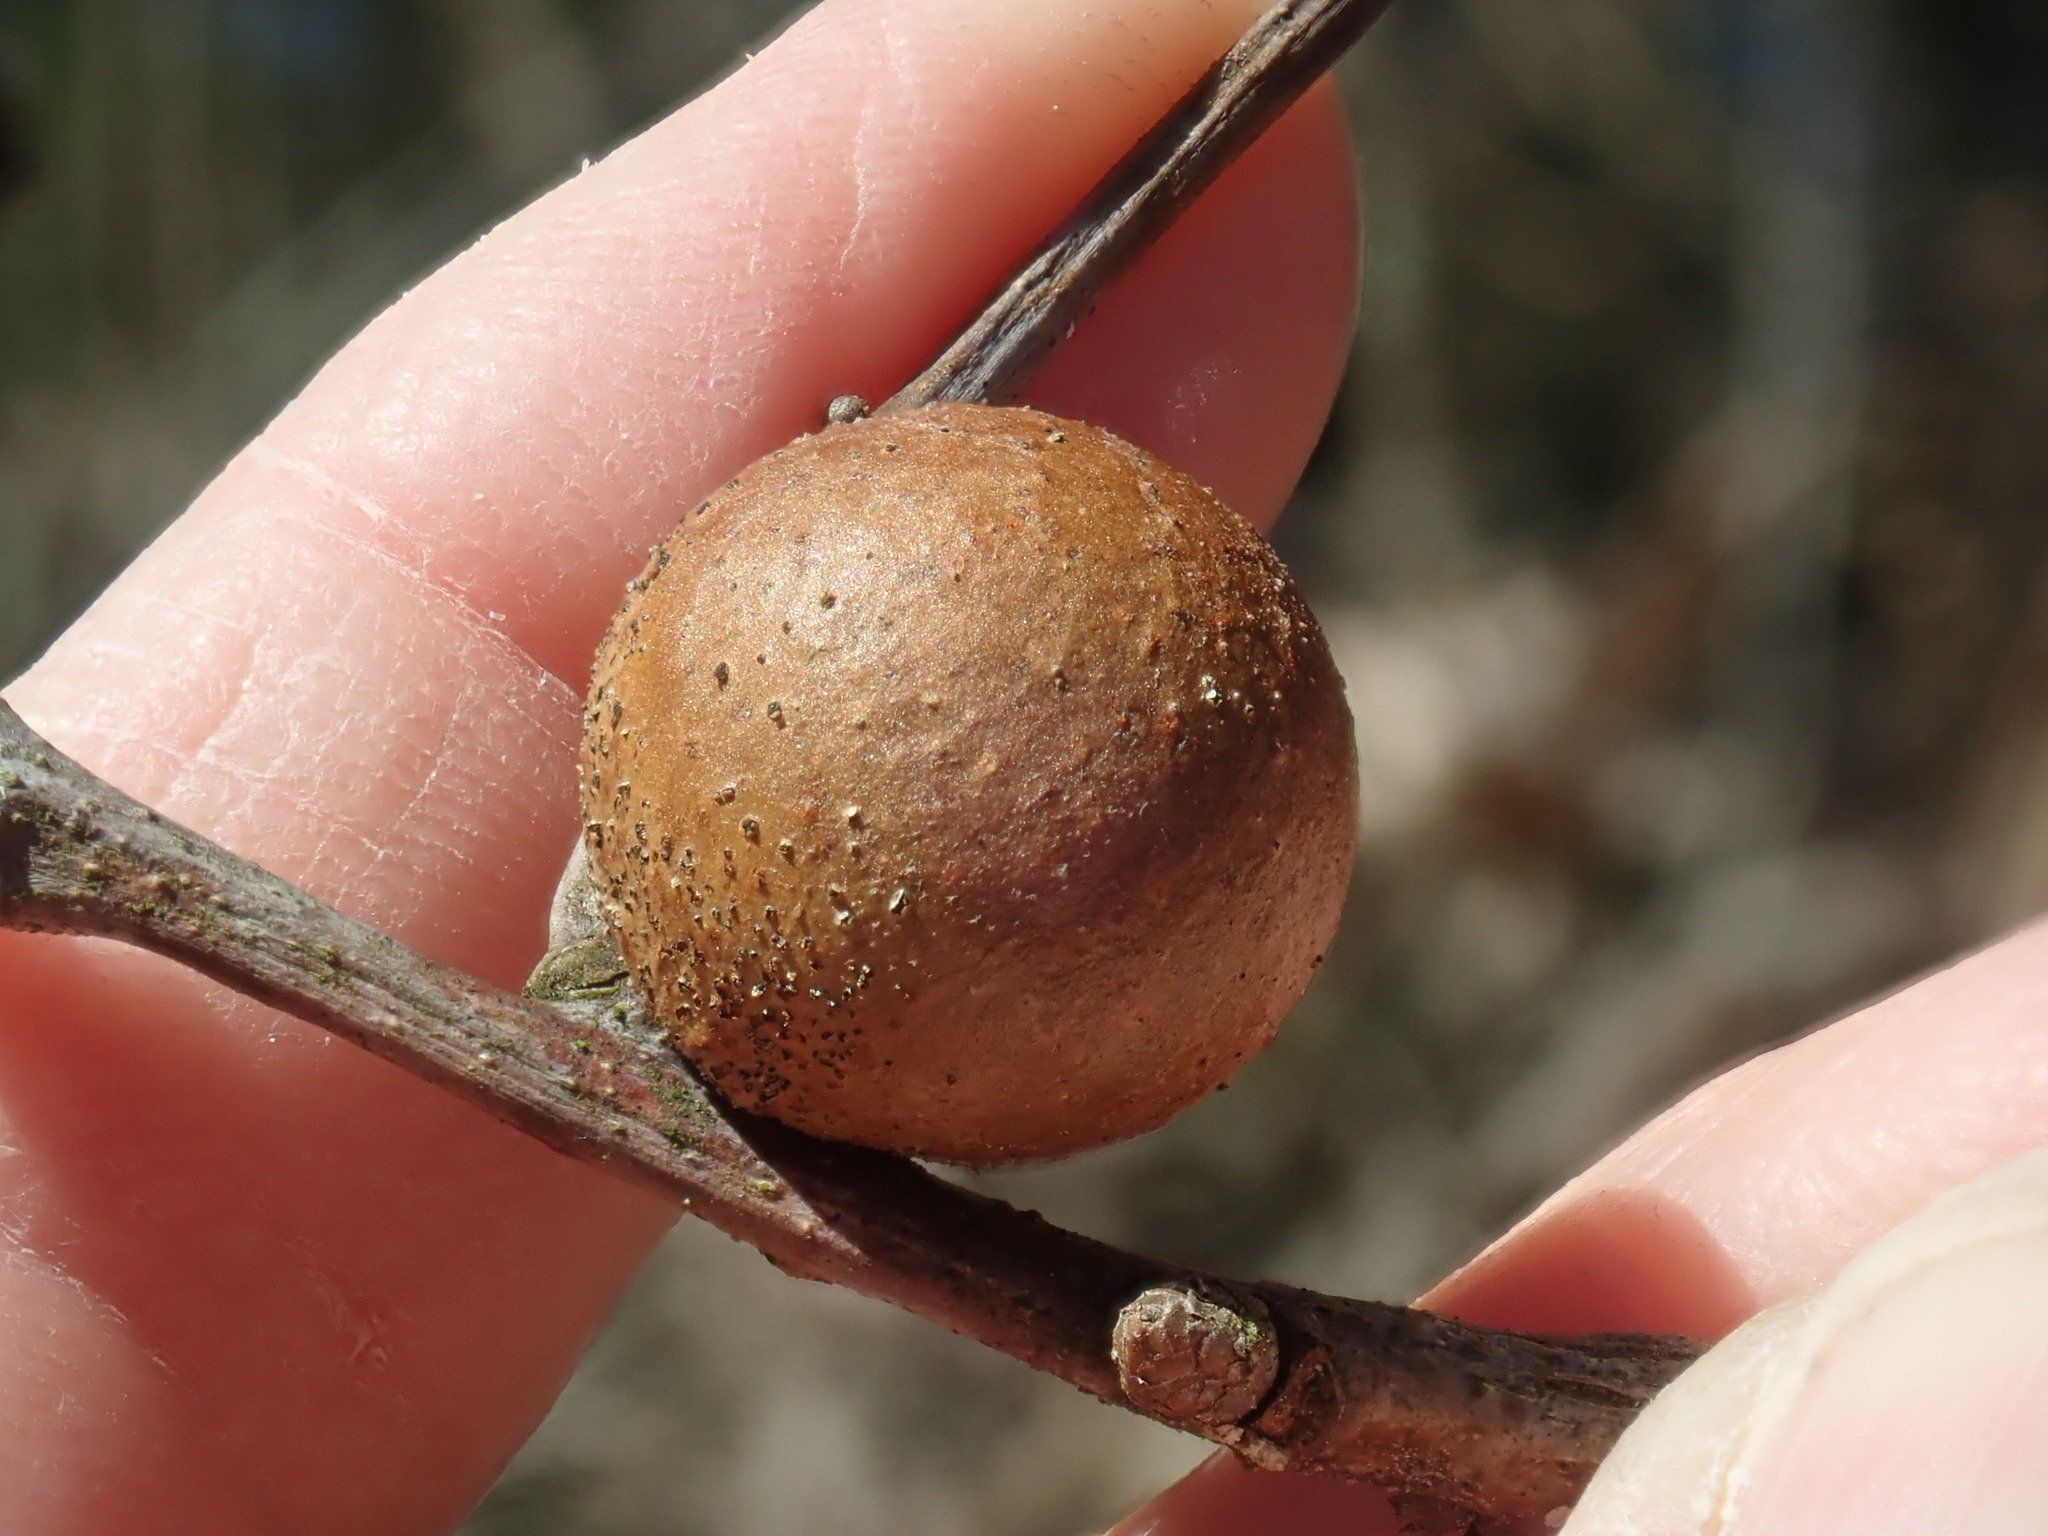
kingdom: Animalia
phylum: Arthropoda
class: Insecta
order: Hymenoptera
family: Cynipidae
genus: Disholcaspis
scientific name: Disholcaspis quercusglobulus
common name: Round bullet gall wasp
